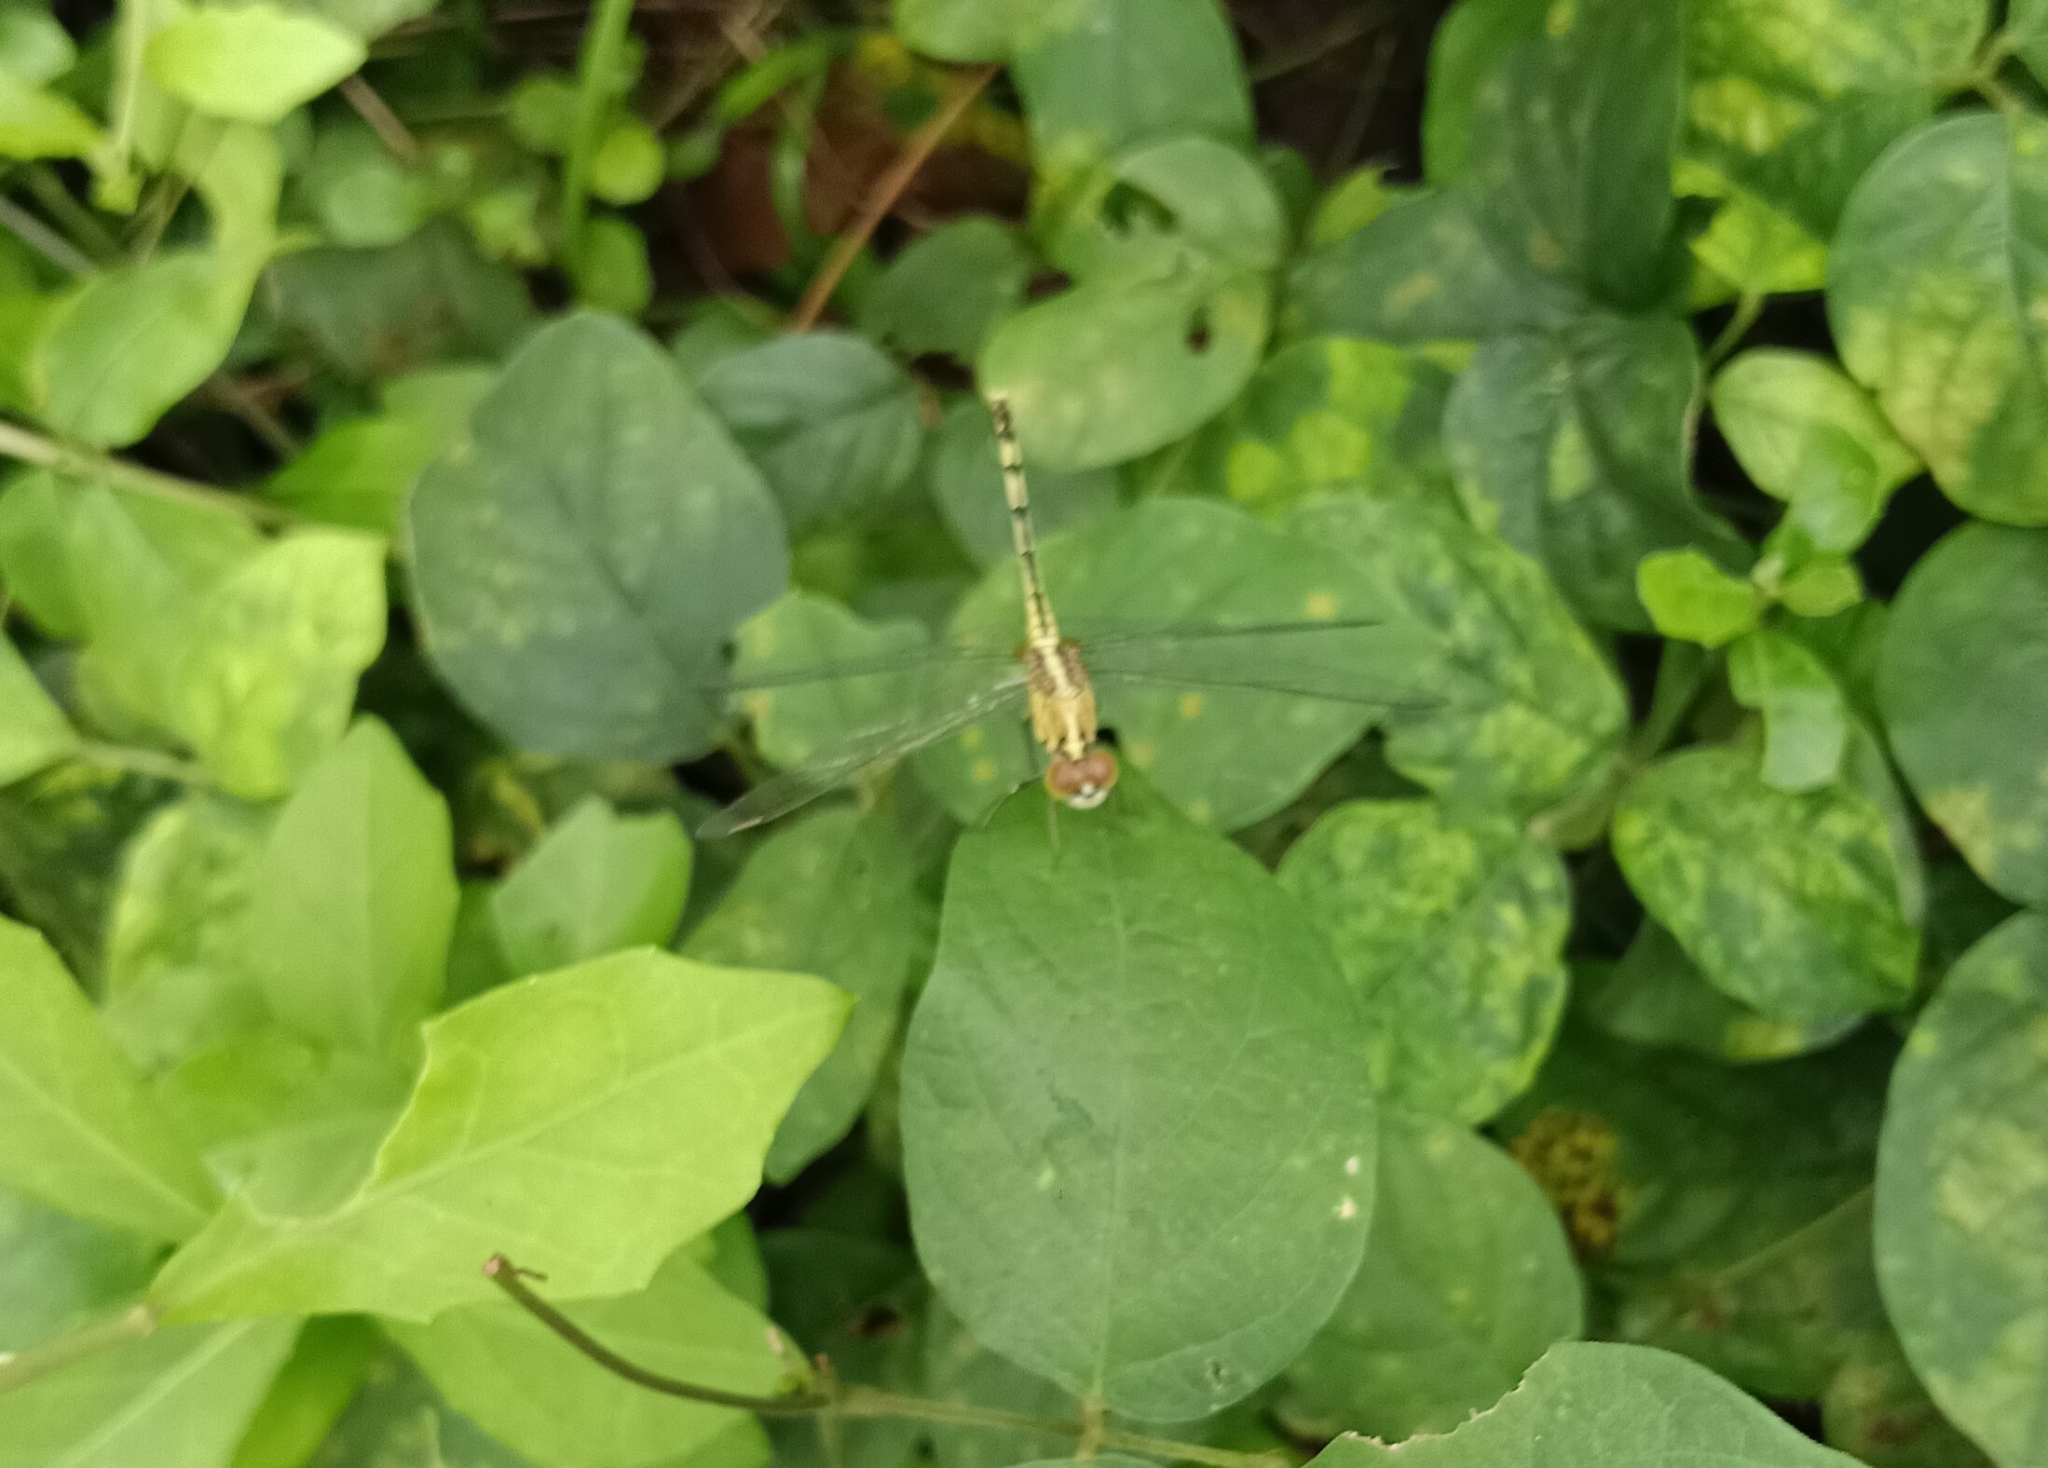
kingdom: Animalia
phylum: Arthropoda
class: Insecta
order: Odonata
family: Libellulidae
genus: Diplacodes
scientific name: Diplacodes trivialis
